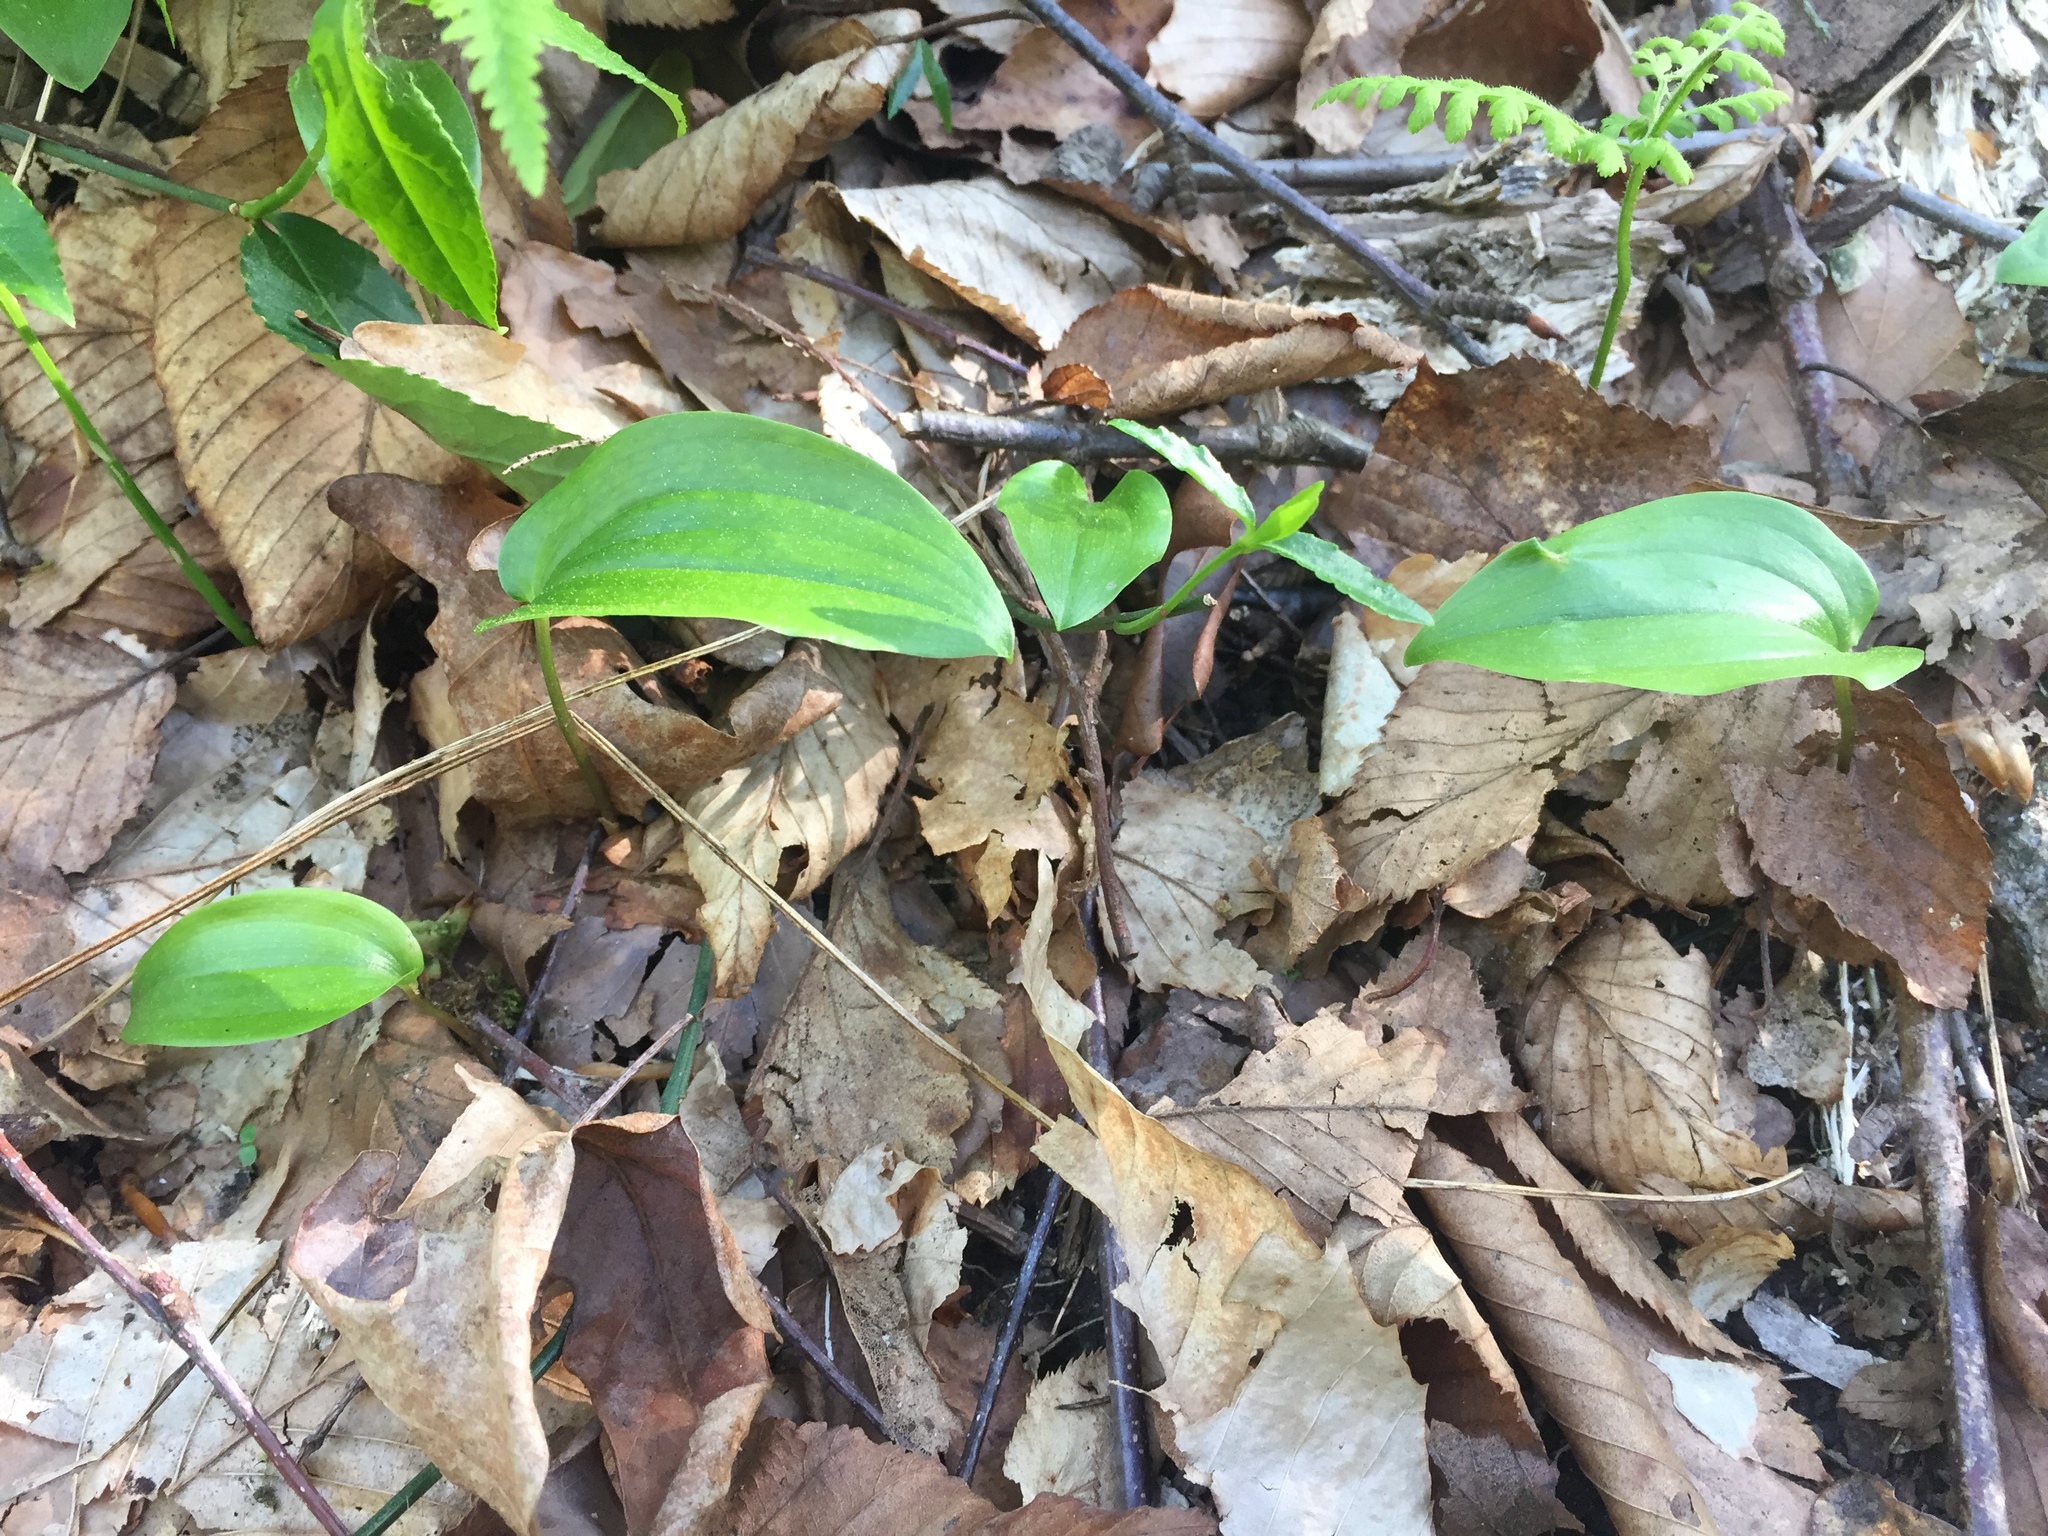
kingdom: Plantae
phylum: Tracheophyta
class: Liliopsida
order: Asparagales
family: Asparagaceae
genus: Maianthemum
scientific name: Maianthemum canadense
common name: False lily-of-the-valley
